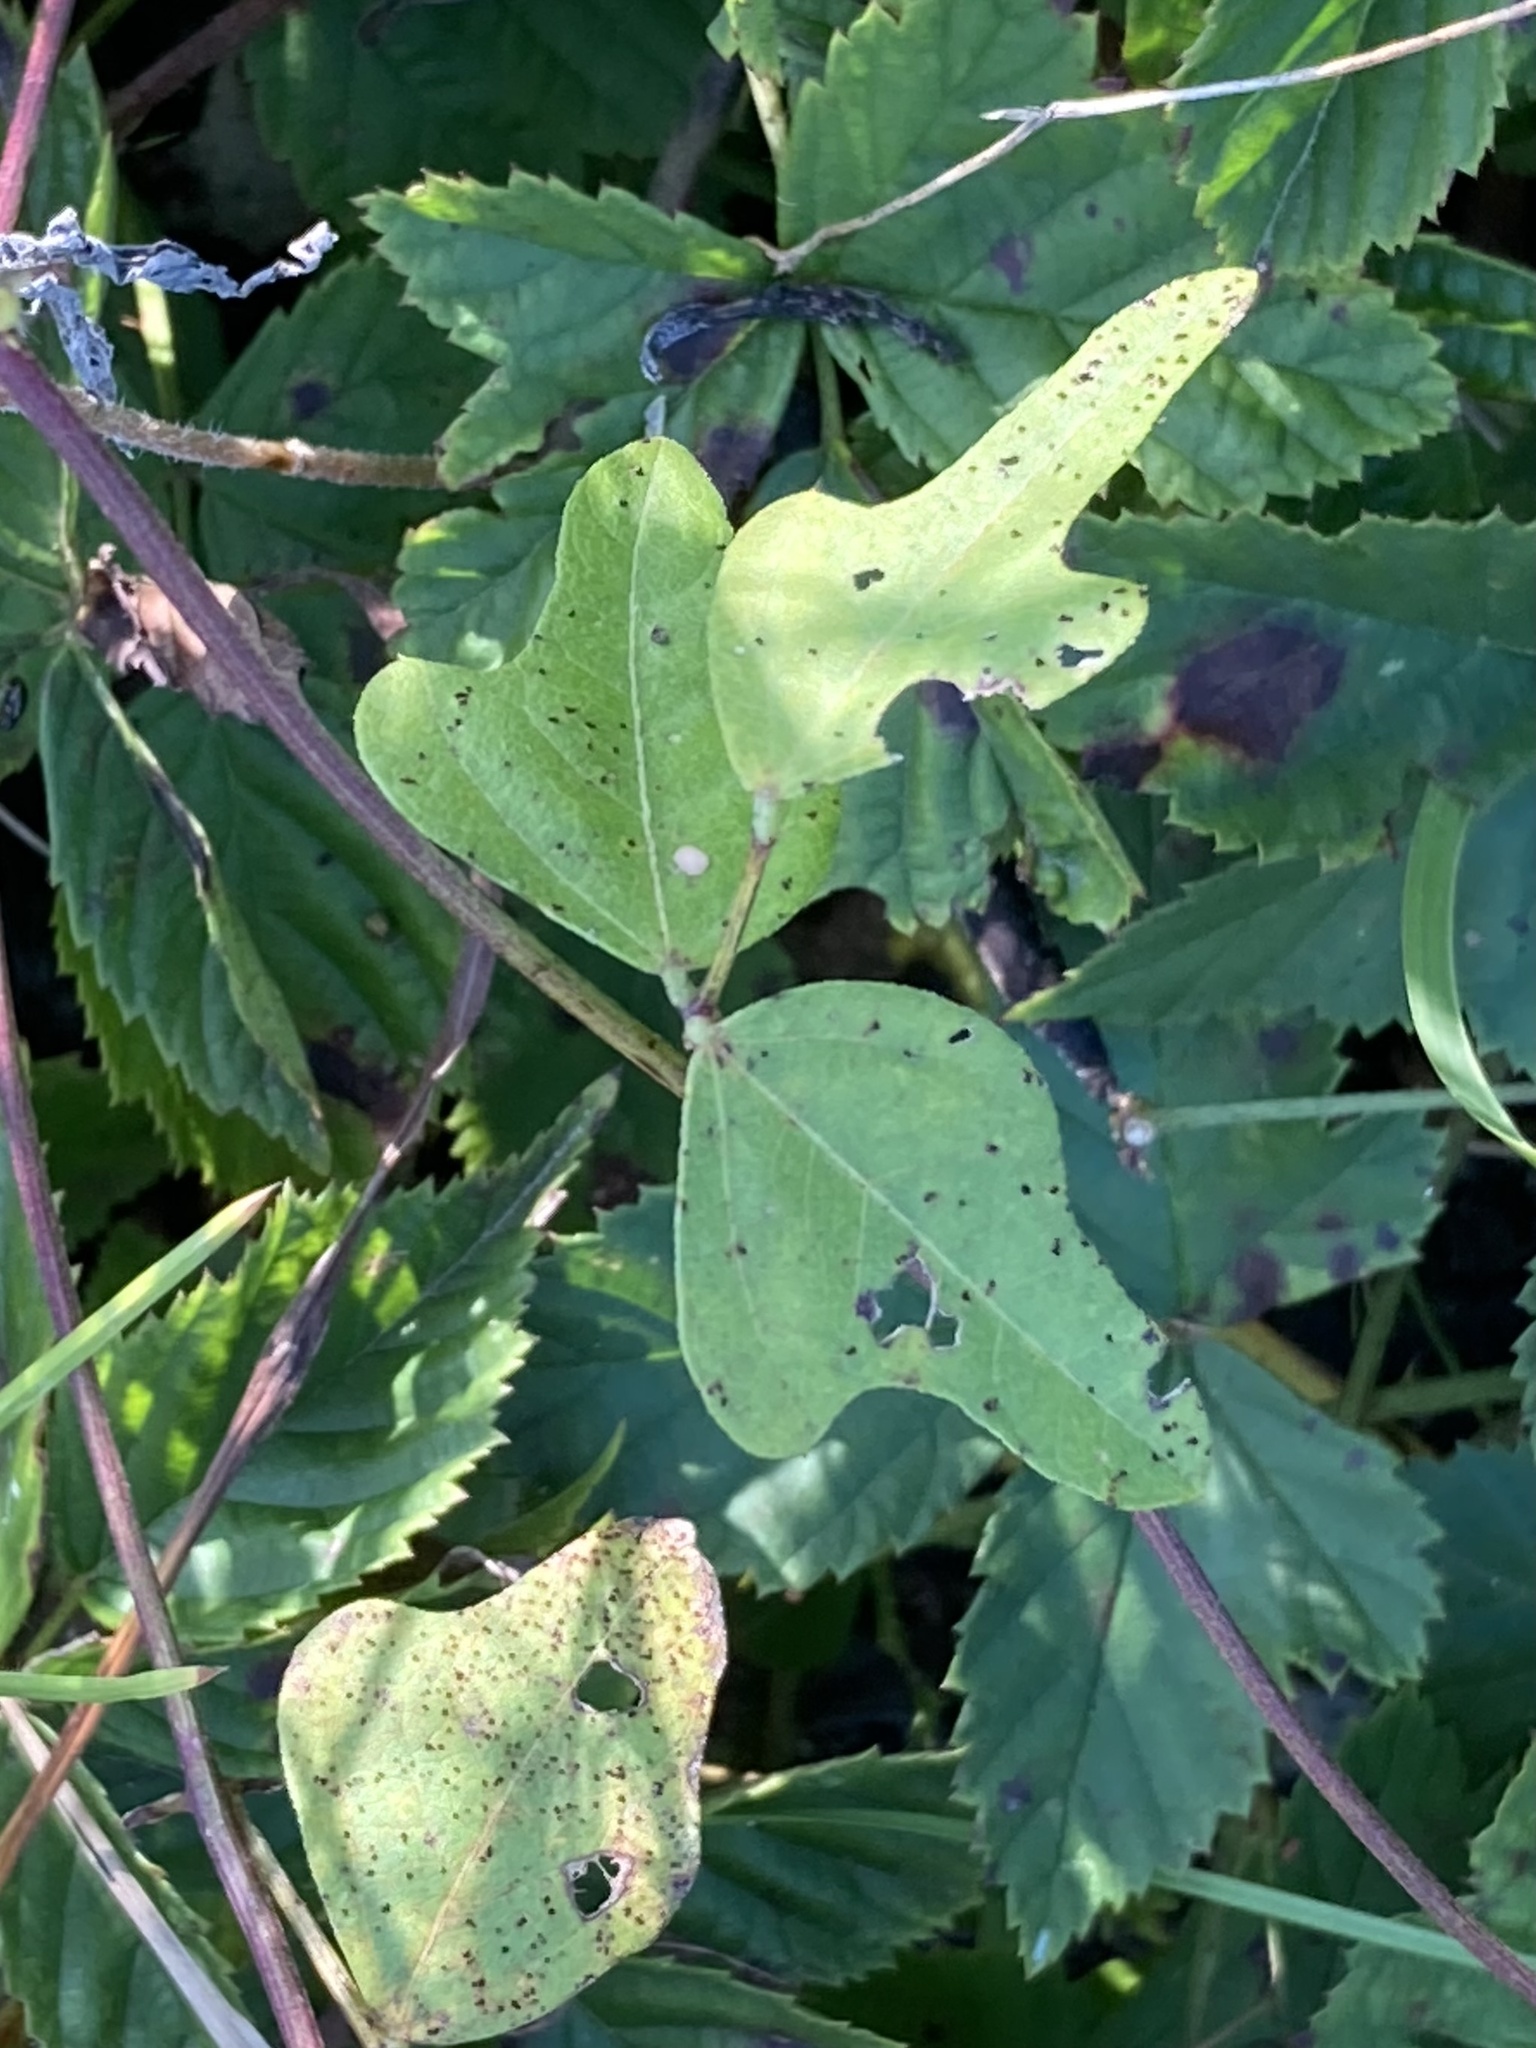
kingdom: Plantae
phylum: Tracheophyta
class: Magnoliopsida
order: Fabales
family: Fabaceae
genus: Strophostyles
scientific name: Strophostyles helvola
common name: Trailing wild bean
